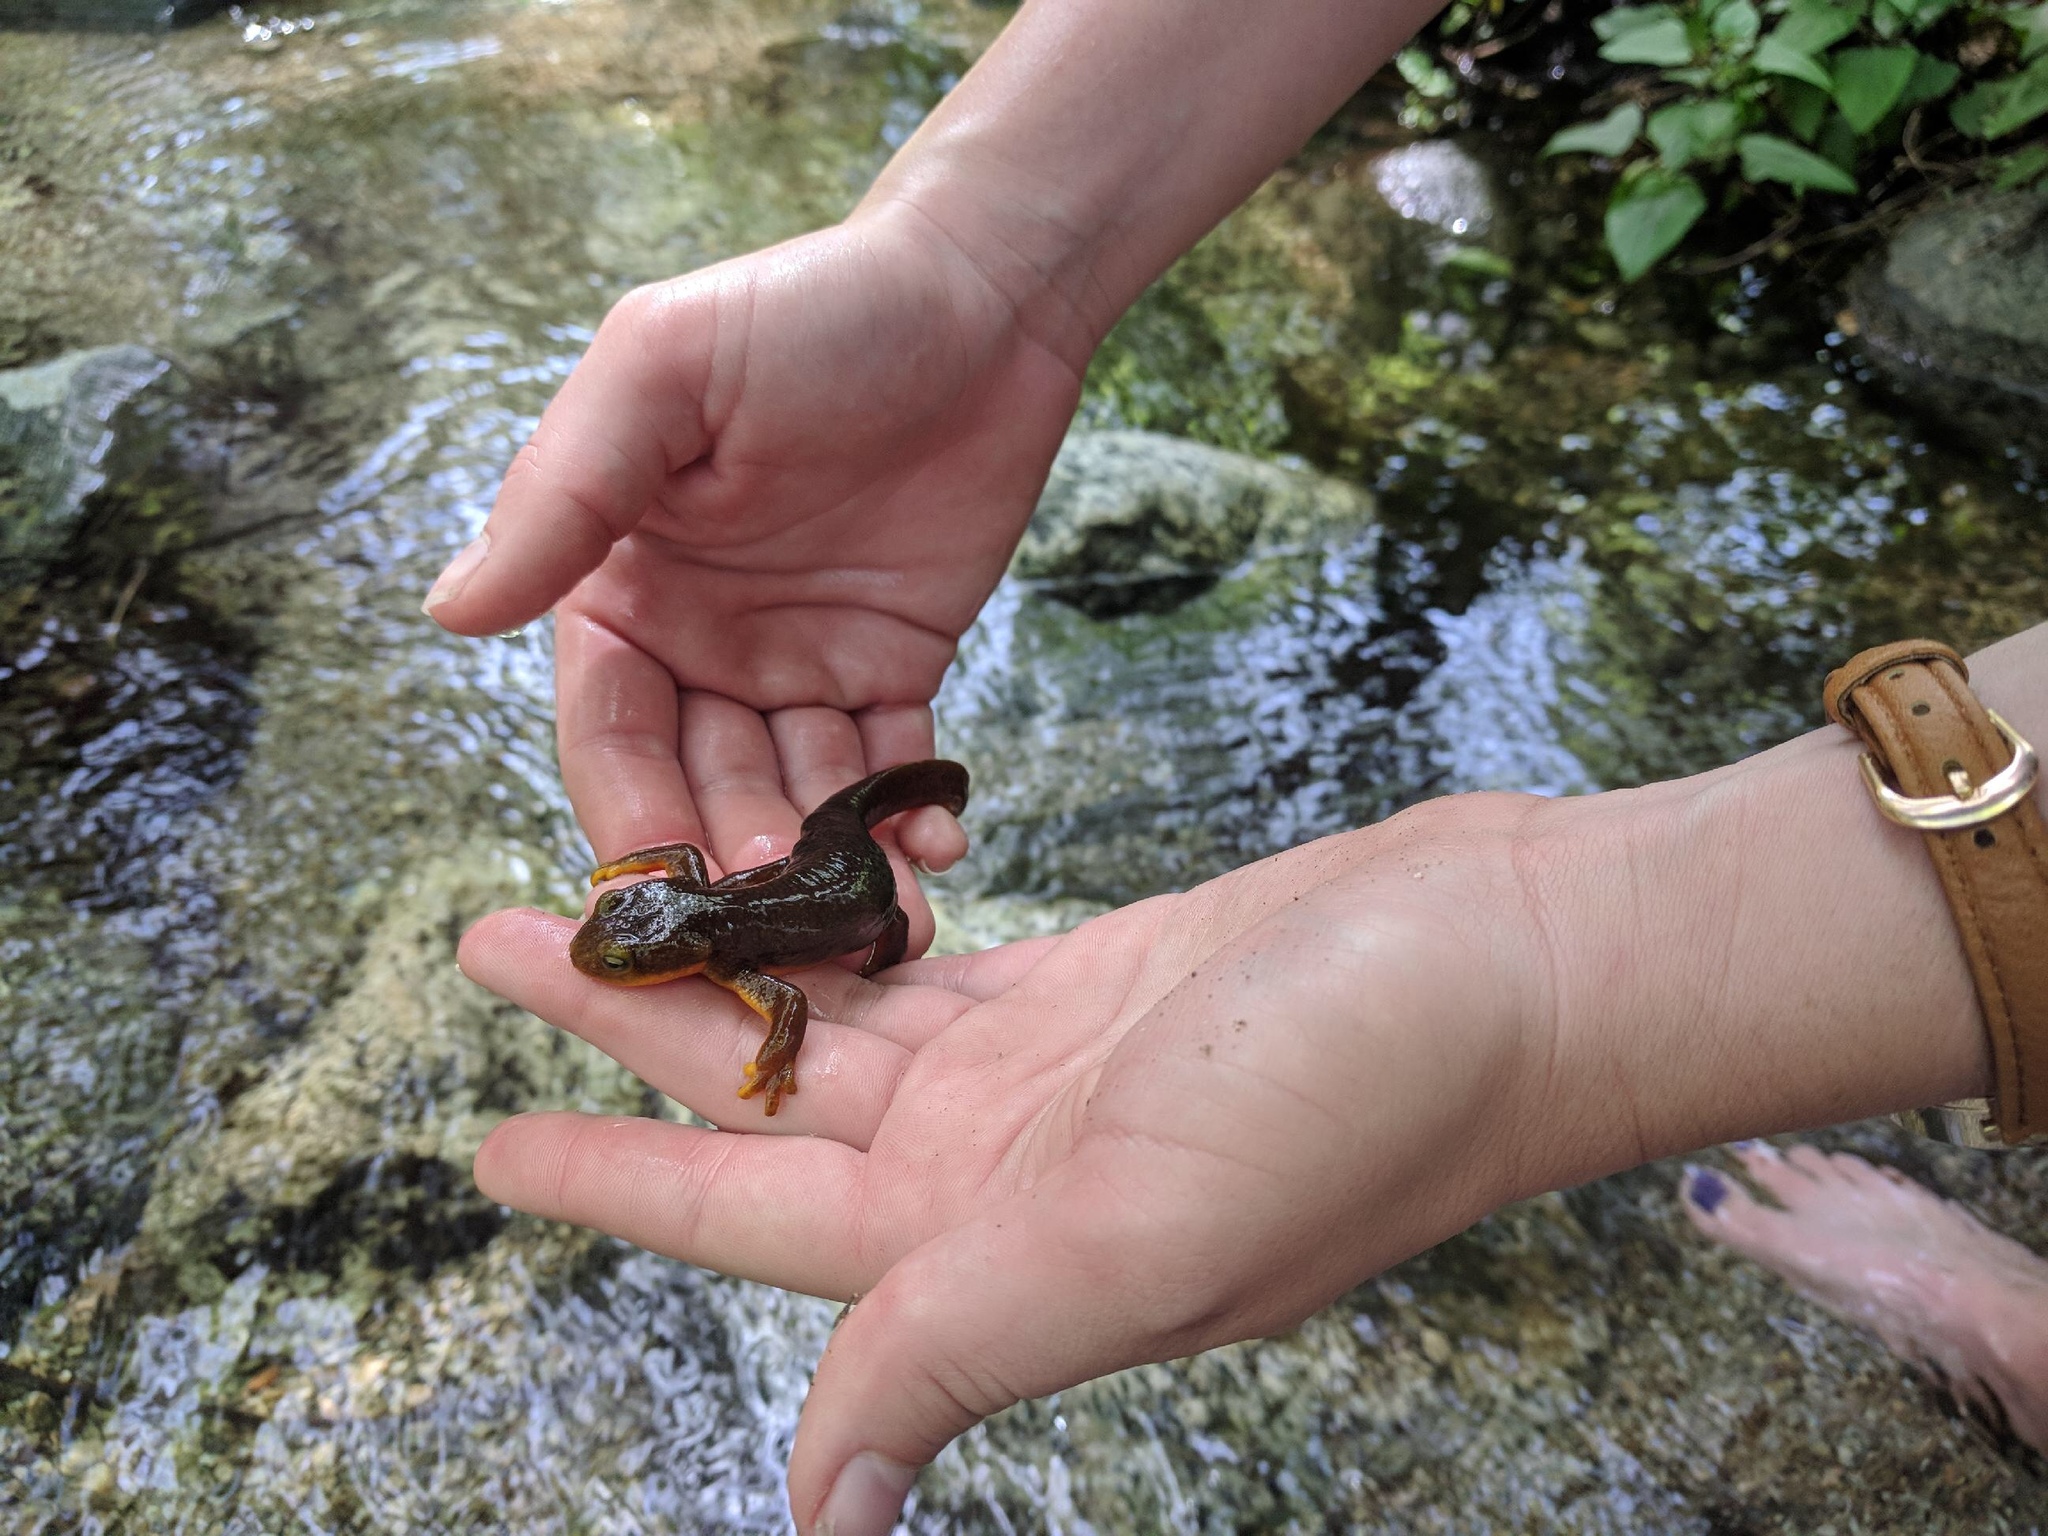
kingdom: Animalia
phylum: Chordata
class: Amphibia
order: Caudata
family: Salamandridae
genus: Taricha
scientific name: Taricha torosa
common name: California newt
